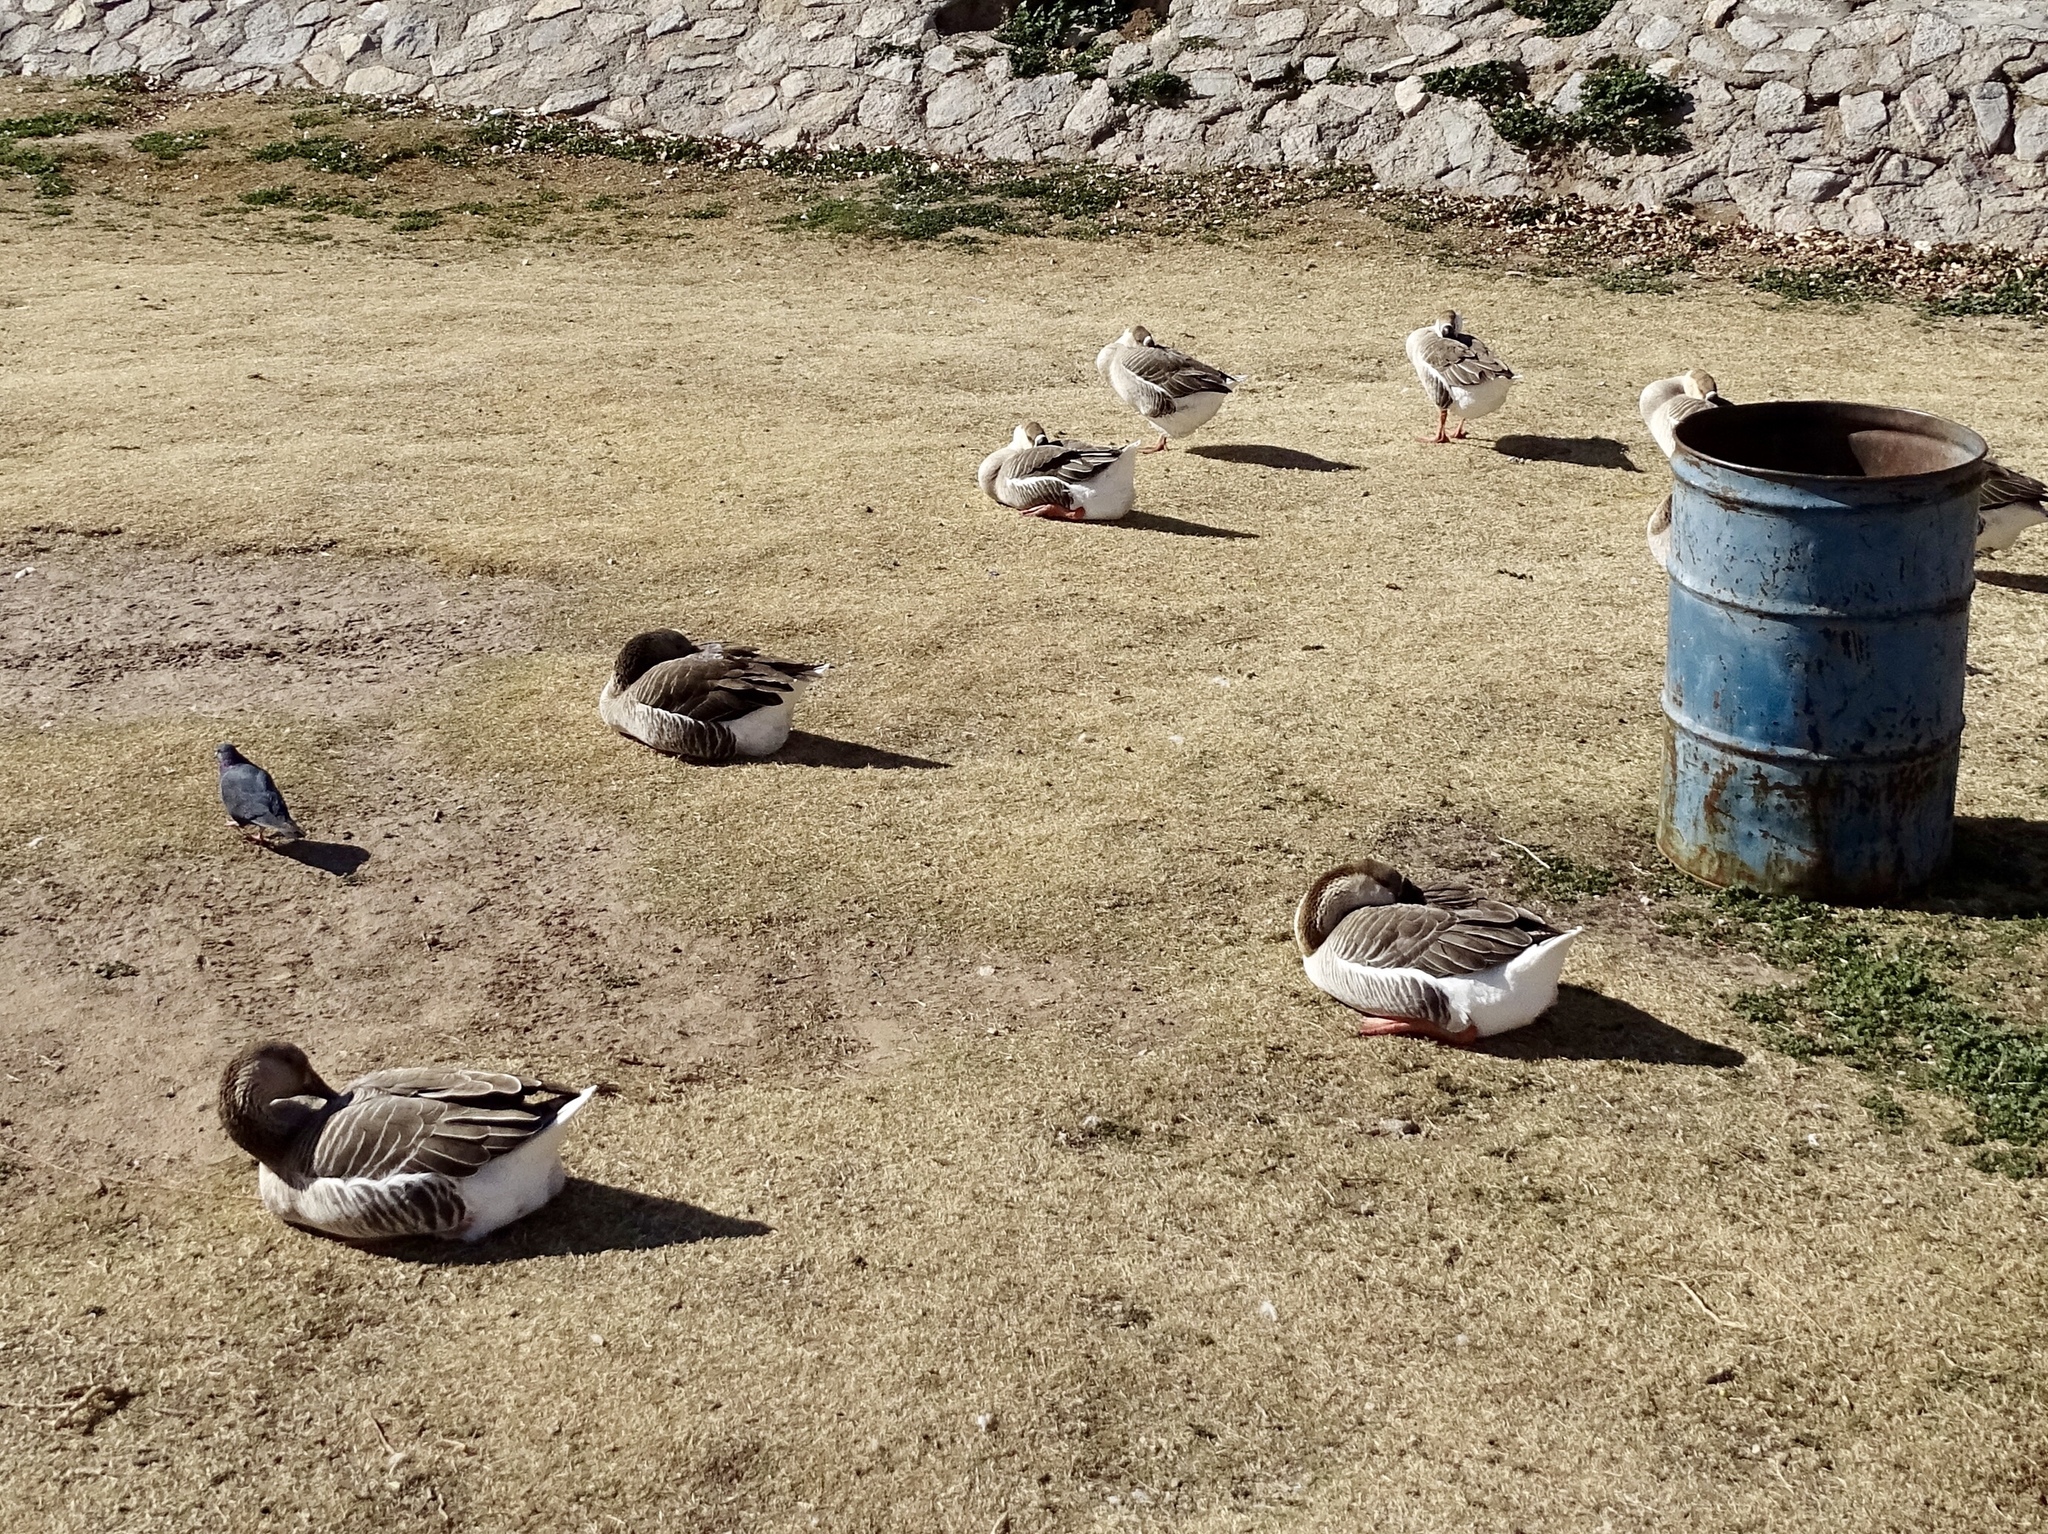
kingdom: Animalia
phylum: Chordata
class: Aves
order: Anseriformes
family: Anatidae
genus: Anser
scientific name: Anser anser
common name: Greylag goose
